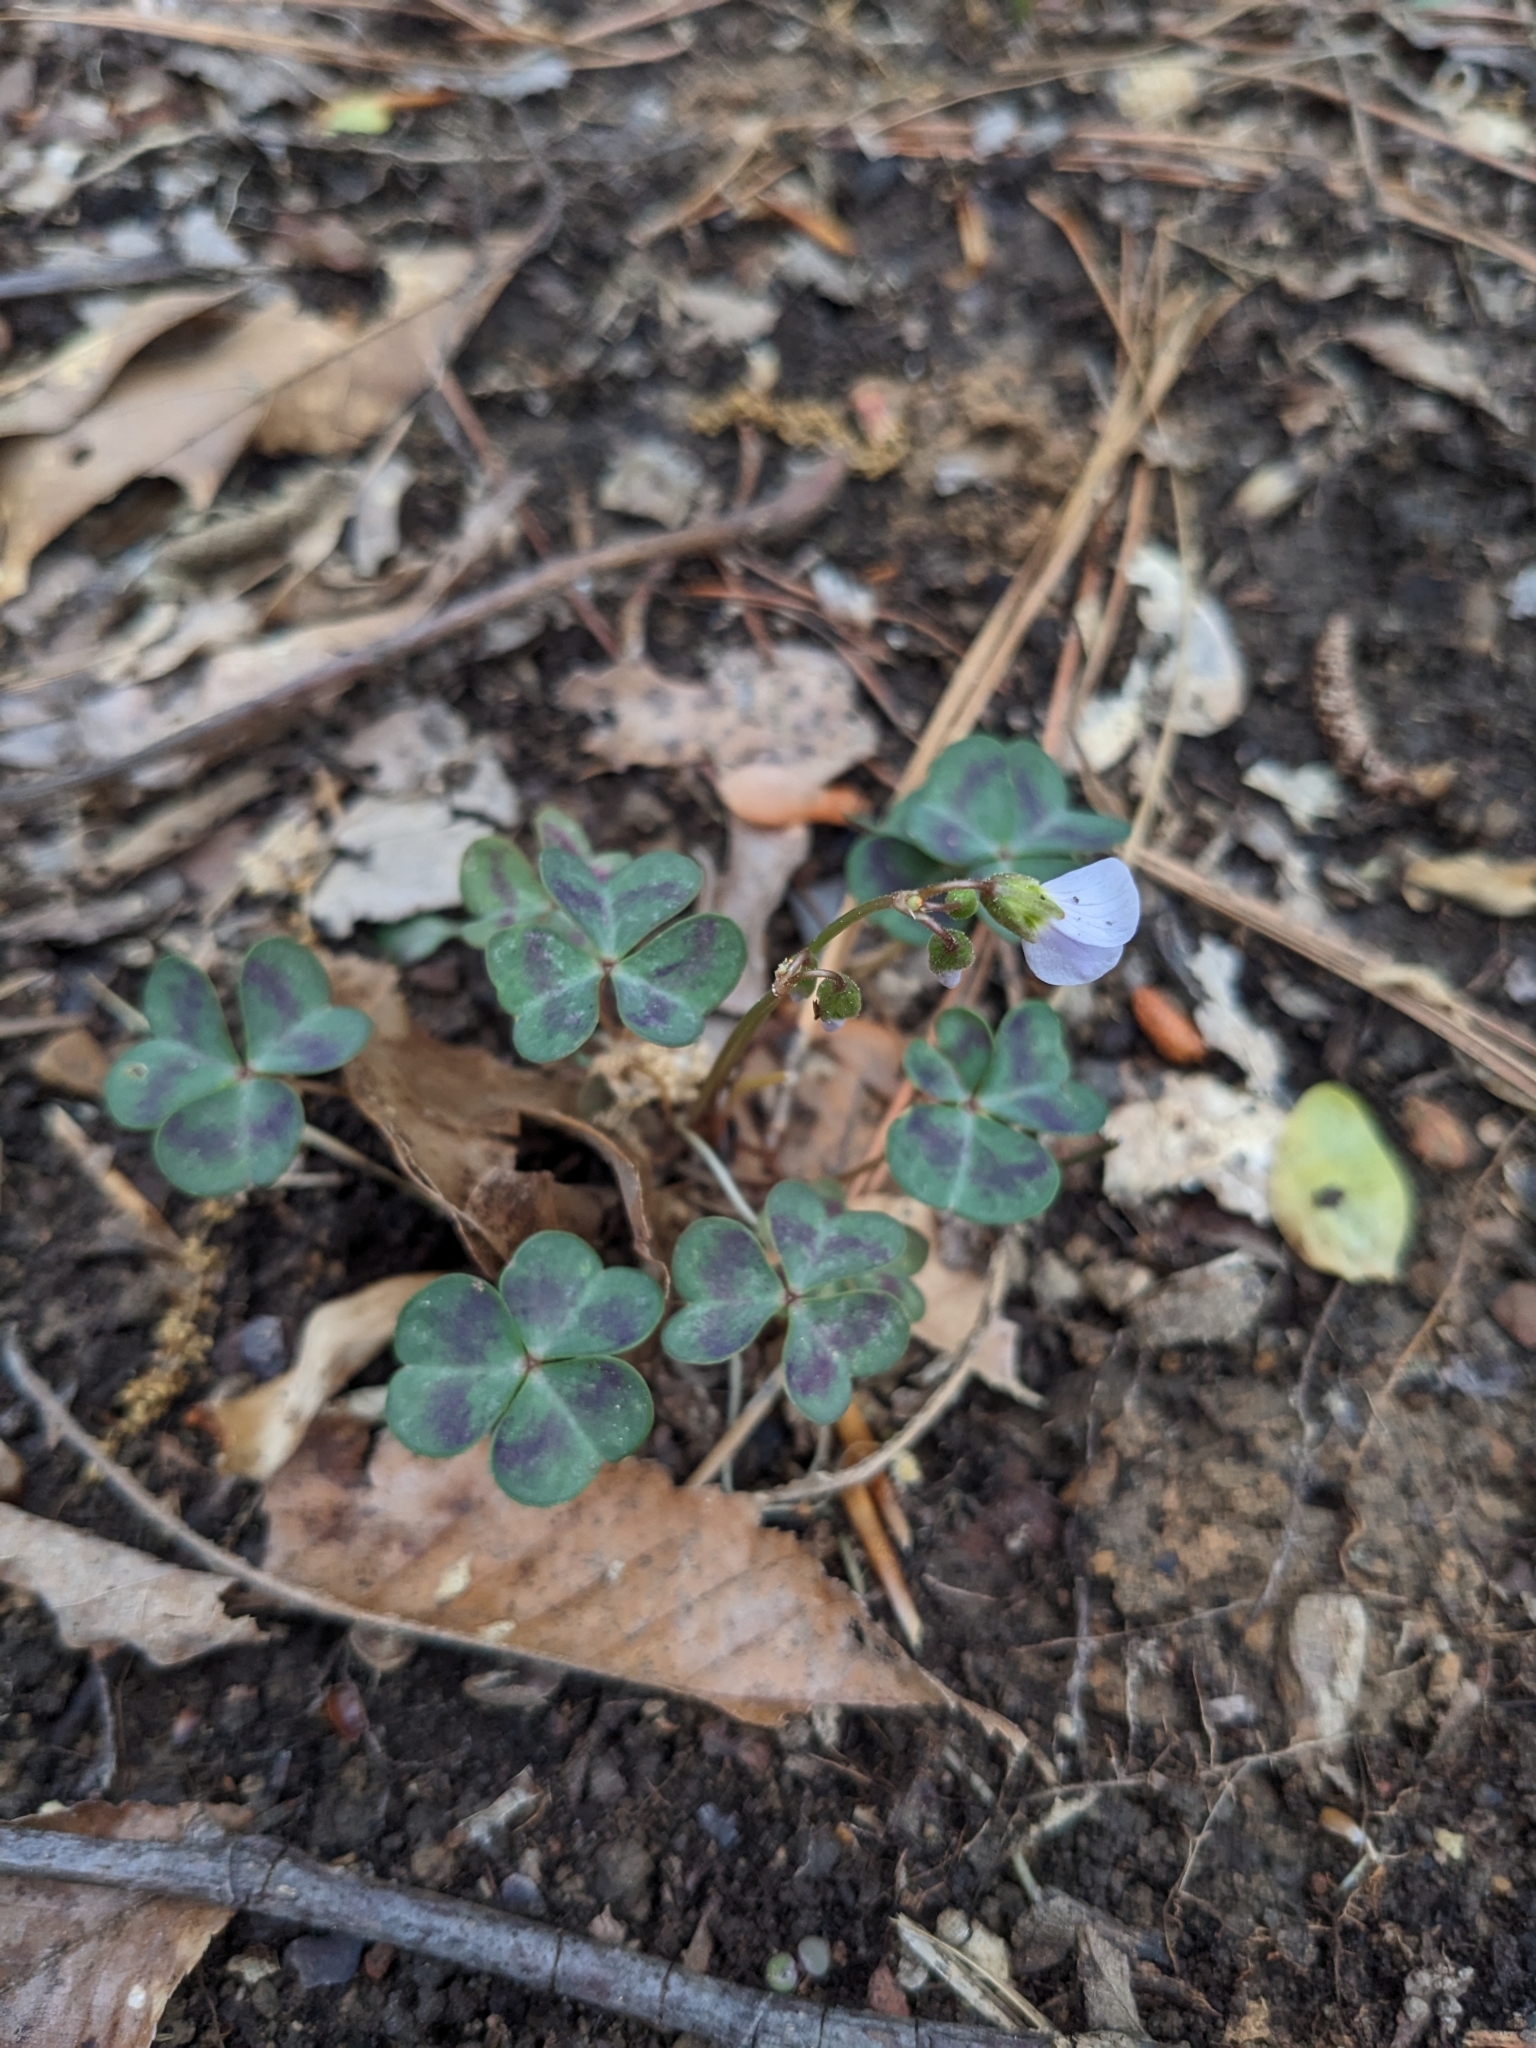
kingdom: Plantae
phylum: Tracheophyta
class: Magnoliopsida
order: Oxalidales
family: Oxalidaceae
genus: Oxalis
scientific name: Oxalis violacea
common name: Violet wood-sorrel
